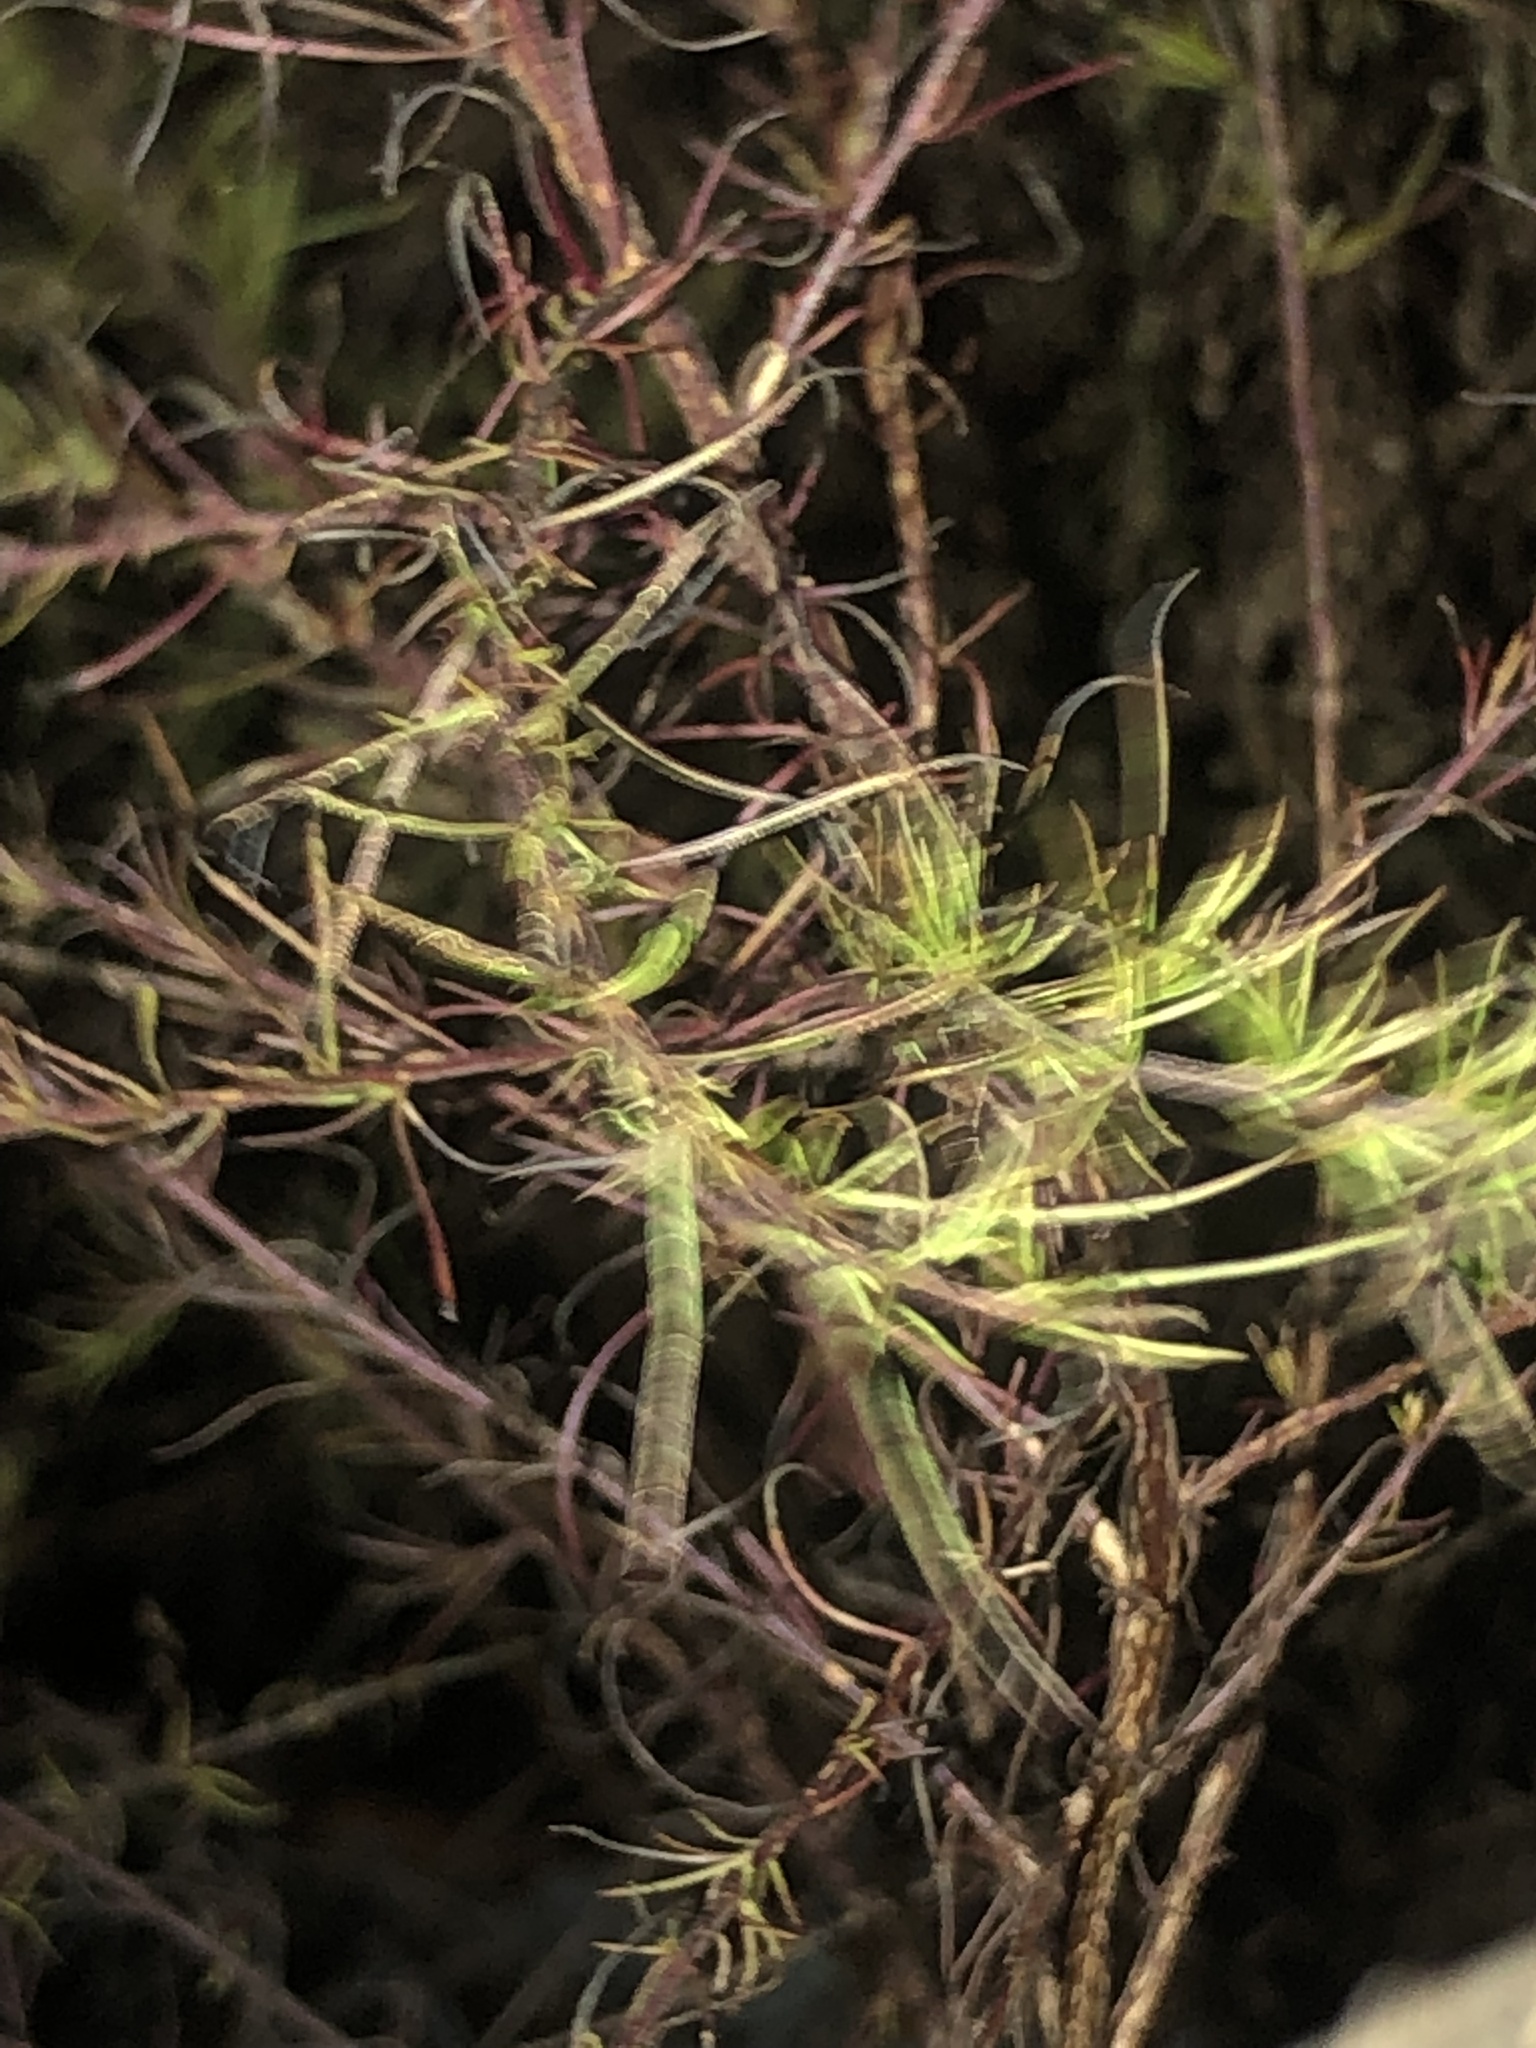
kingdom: Plantae
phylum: Tracheophyta
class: Magnoliopsida
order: Asterales
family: Asteraceae
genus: Eupatorium
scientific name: Eupatorium capillifolium
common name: Dog-fennel
